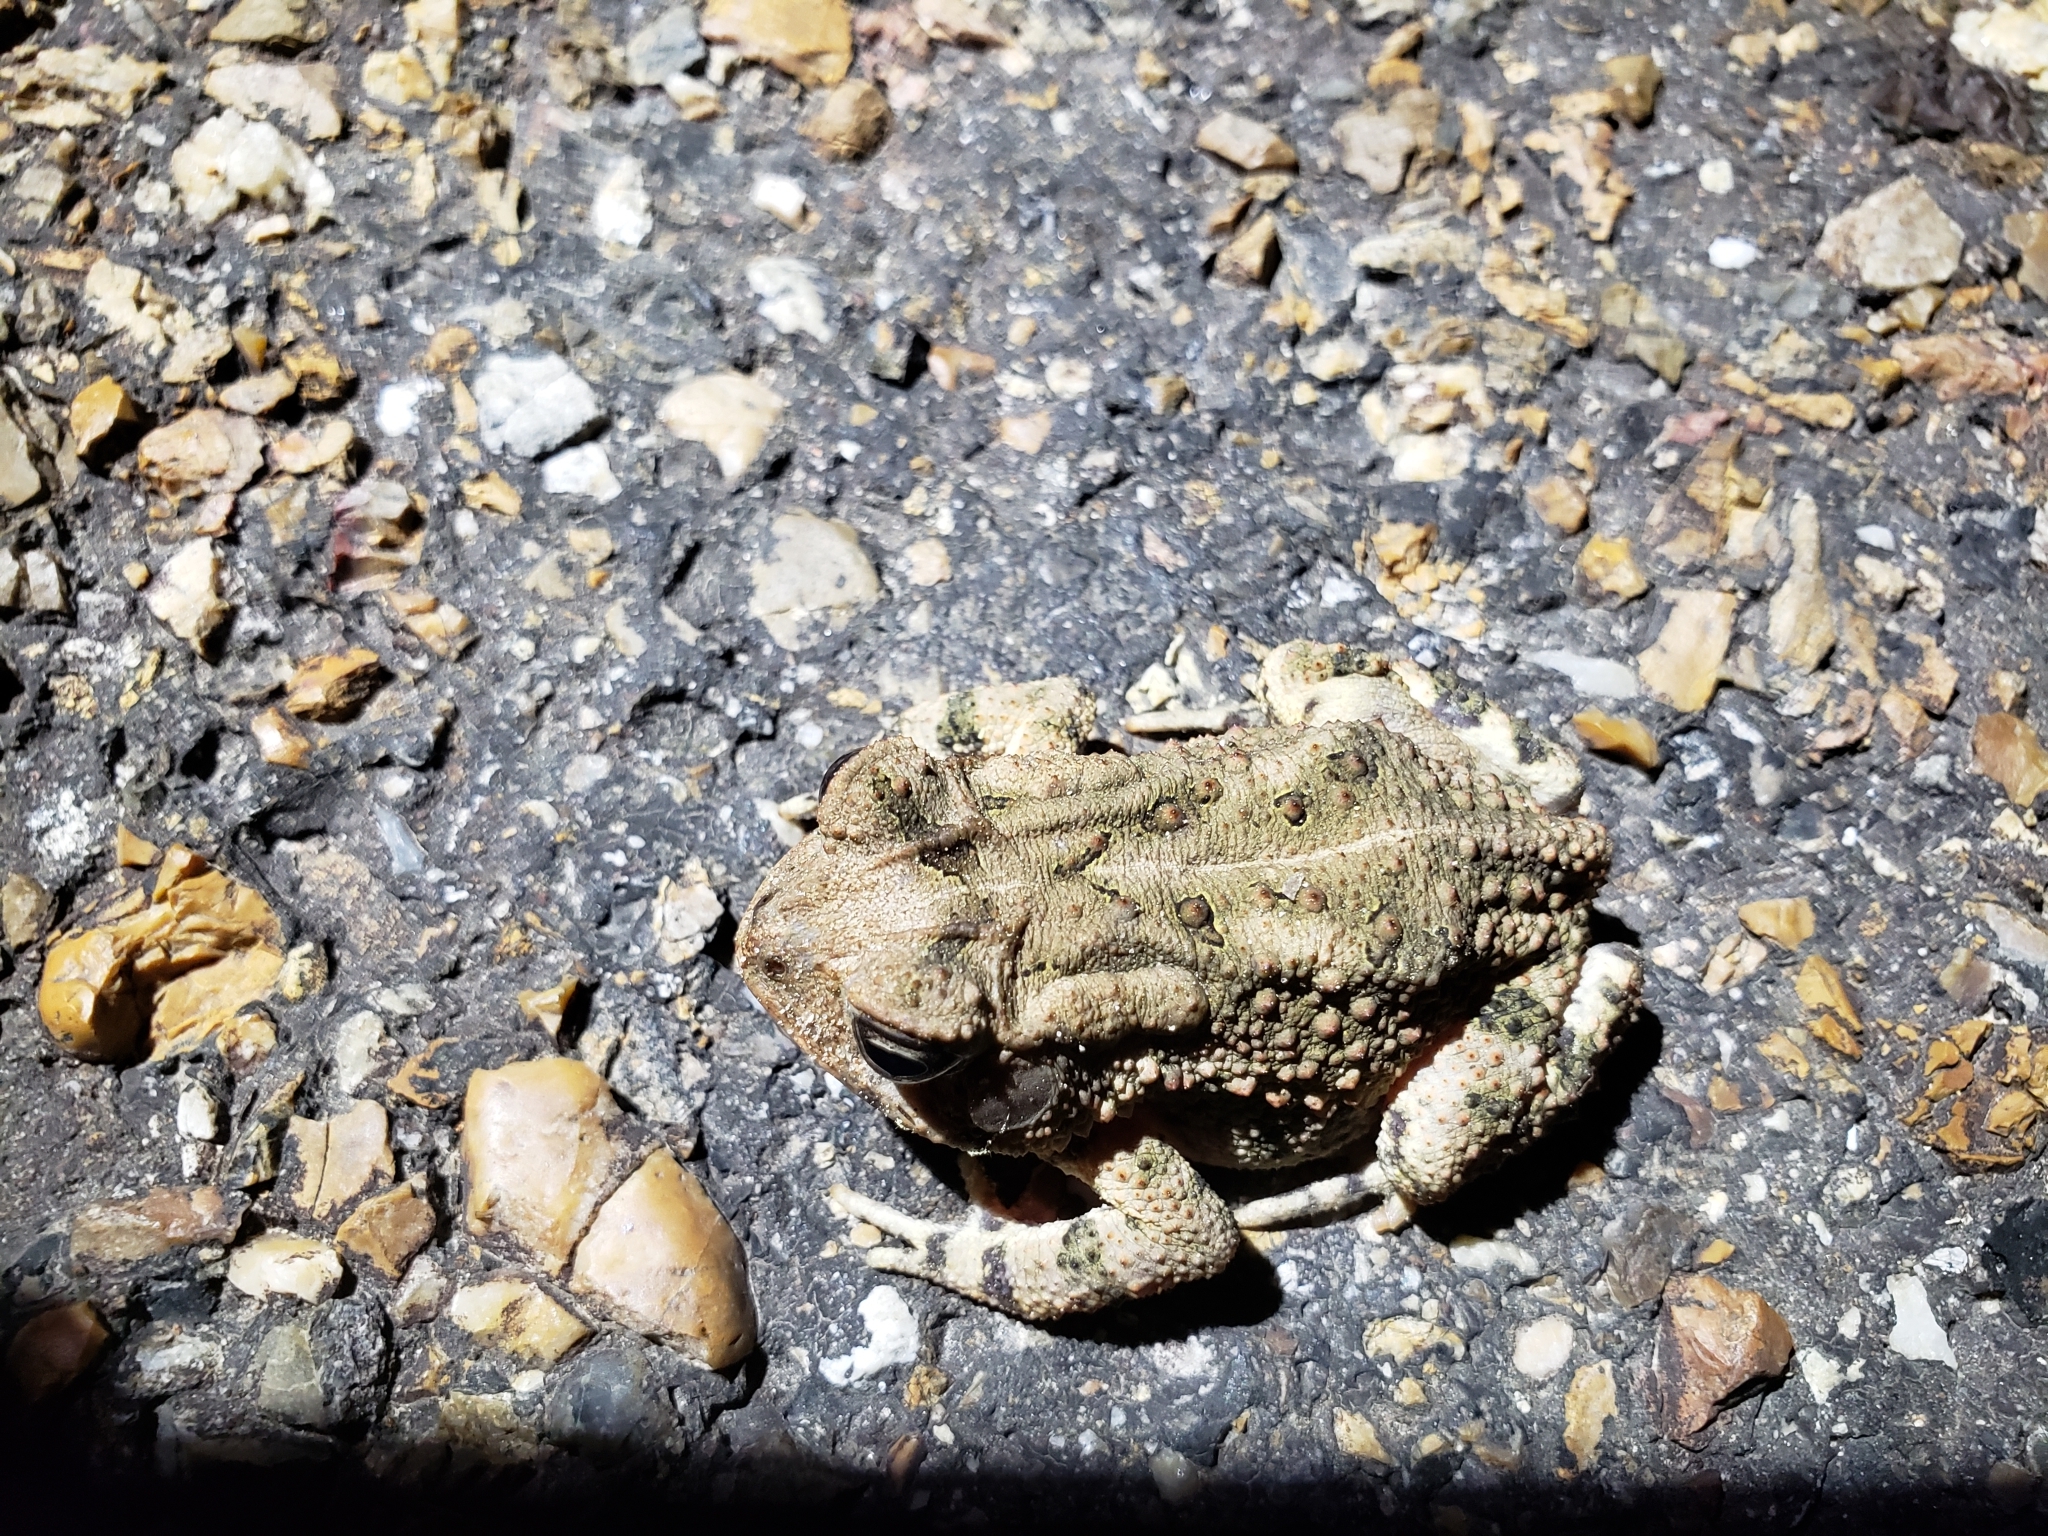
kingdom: Animalia
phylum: Chordata
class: Amphibia
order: Anura
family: Bufonidae
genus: Anaxyrus
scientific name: Anaxyrus americanus
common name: American toad
